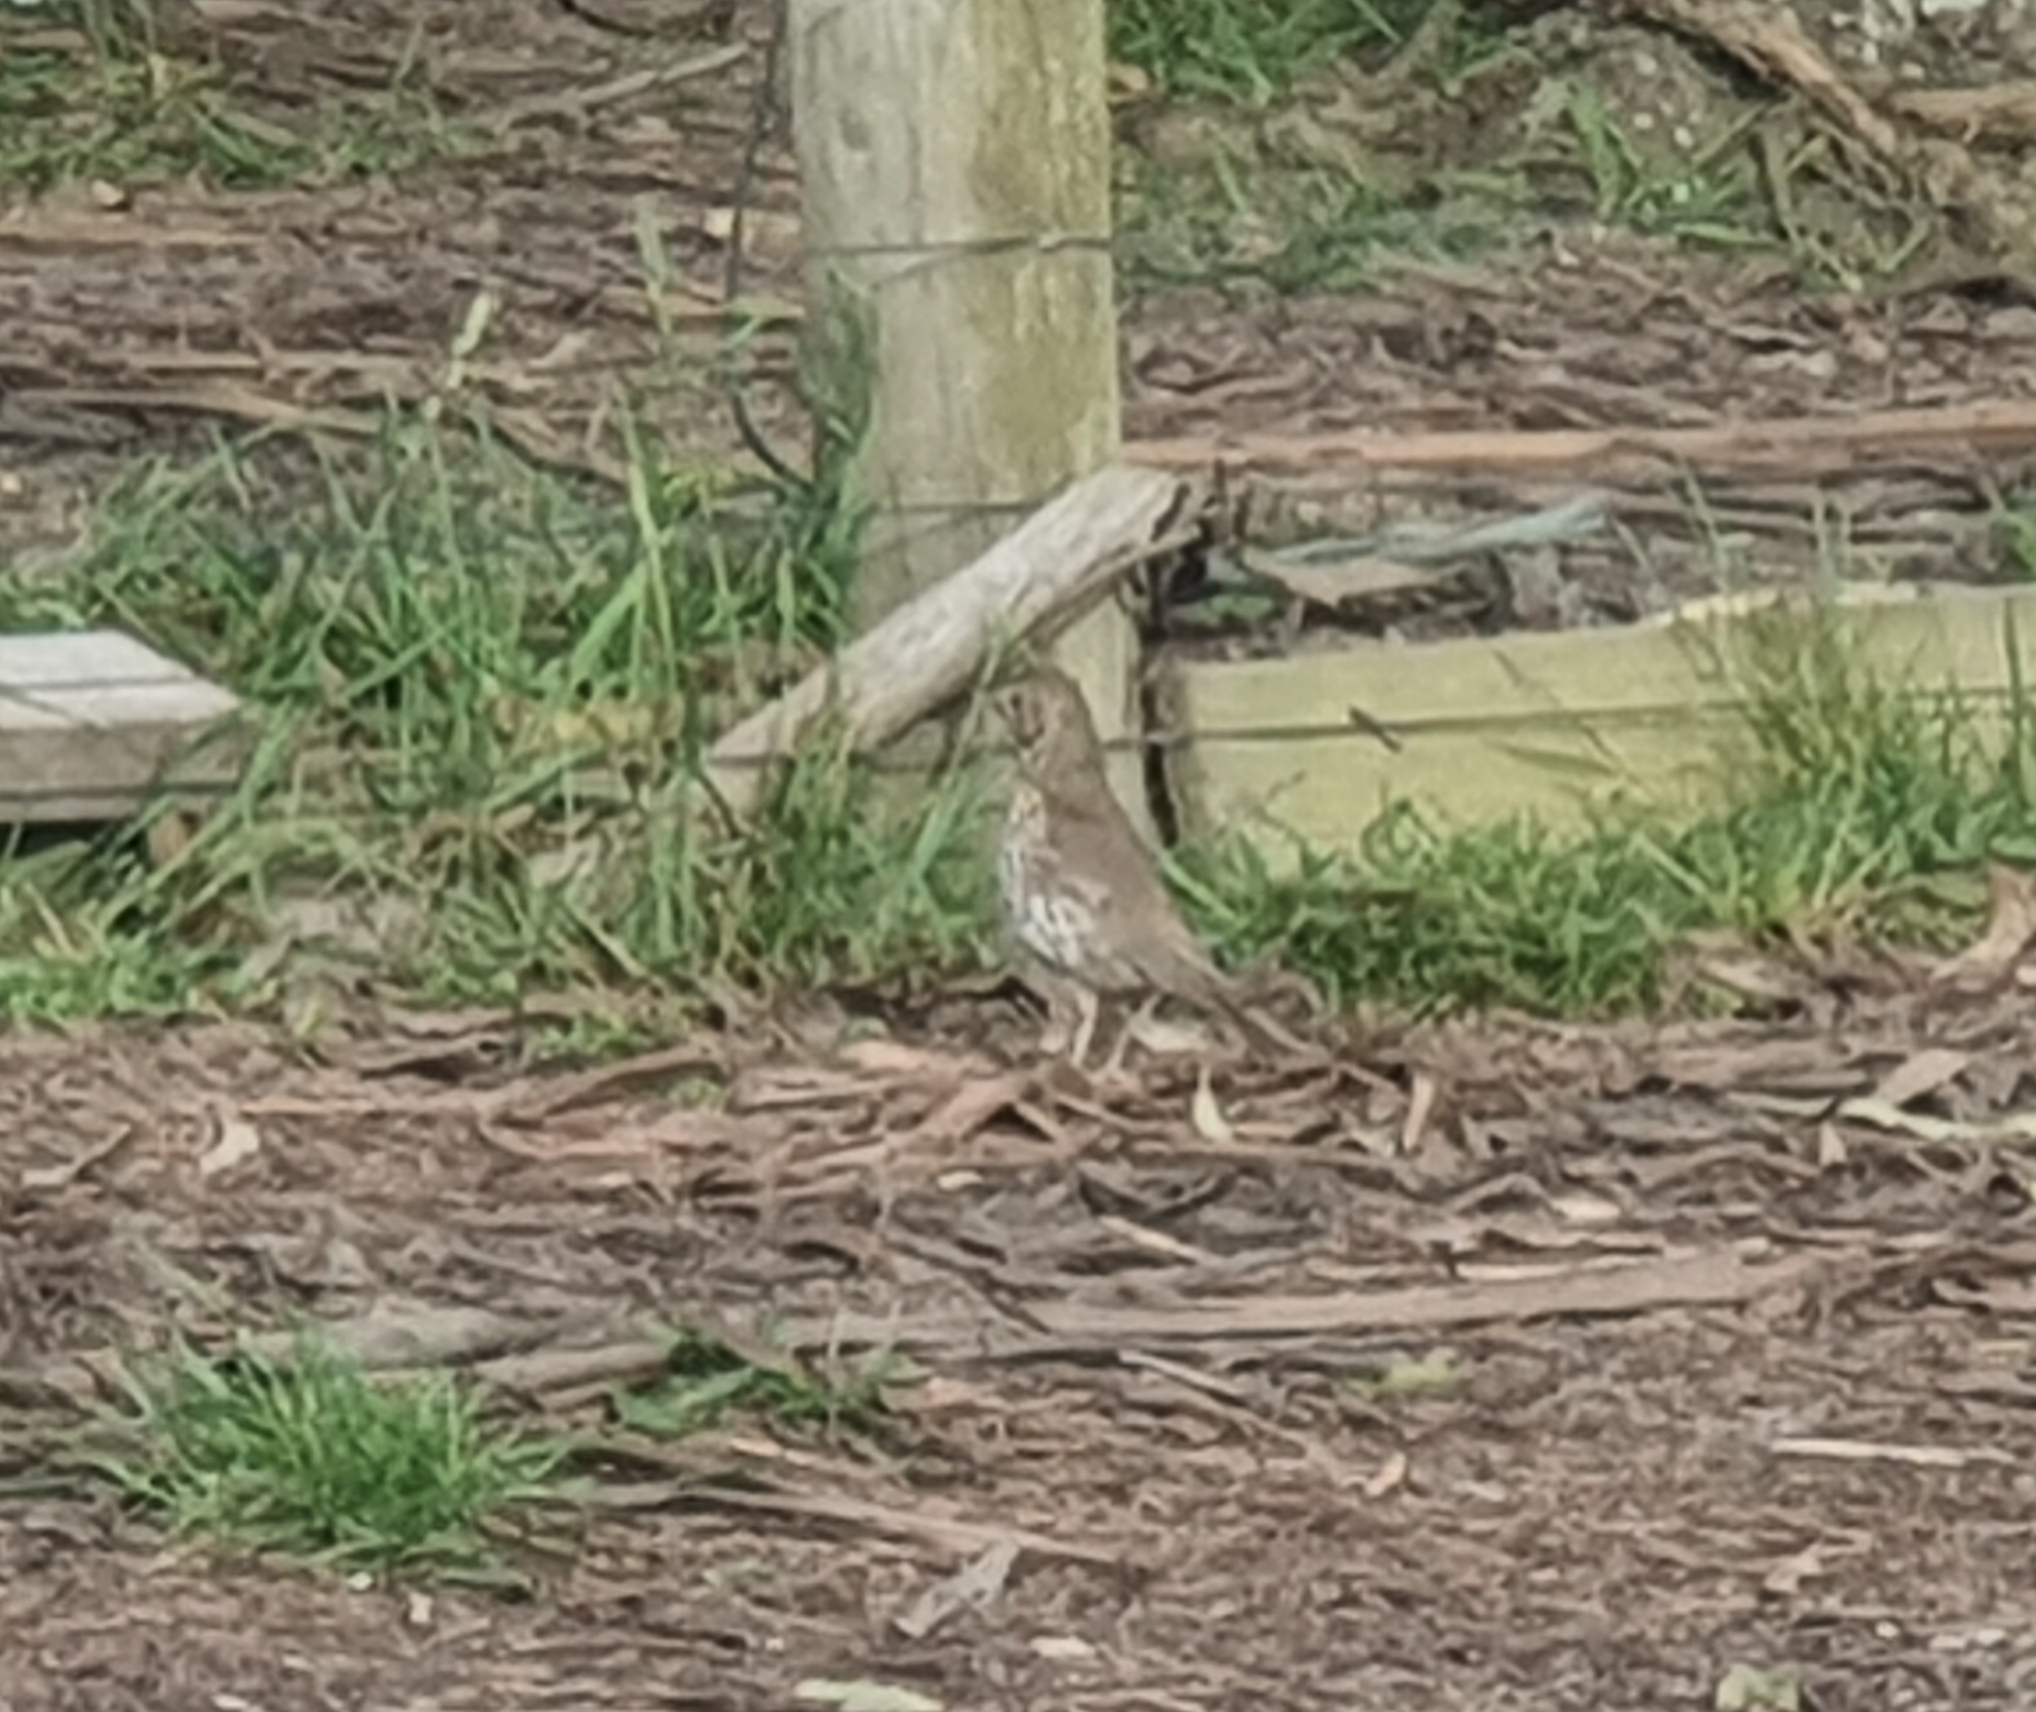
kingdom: Animalia
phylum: Chordata
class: Aves
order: Passeriformes
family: Turdidae
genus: Turdus
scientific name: Turdus philomelos
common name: Song thrush
